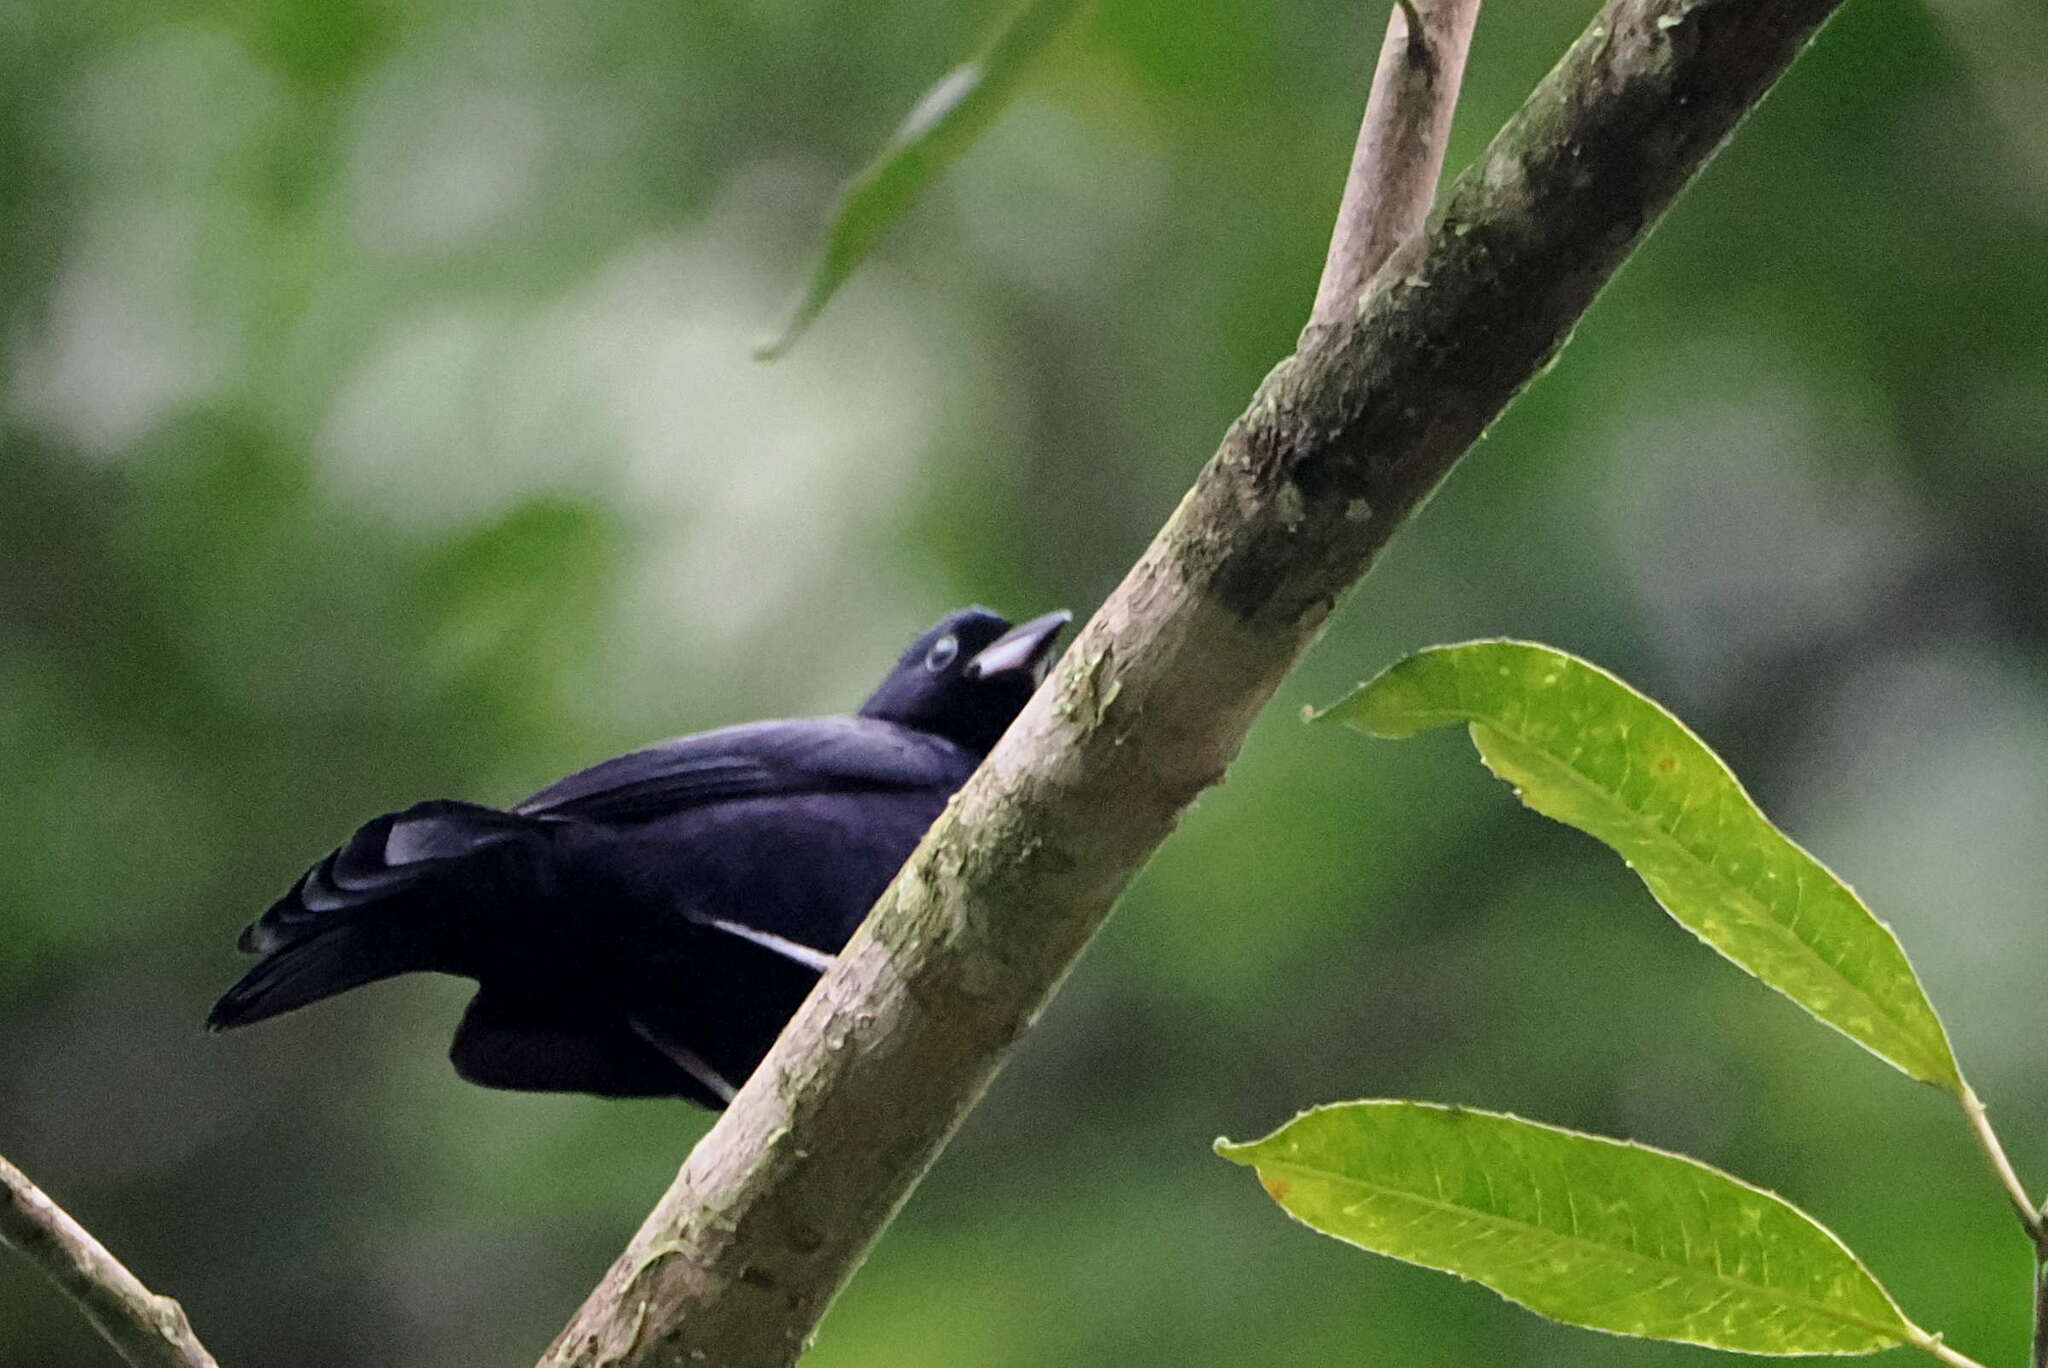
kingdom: Animalia
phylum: Chordata
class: Aves
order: Passeriformes
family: Thraupidae
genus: Tachyphonus
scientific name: Tachyphonus rufus
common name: White-lined tanager
